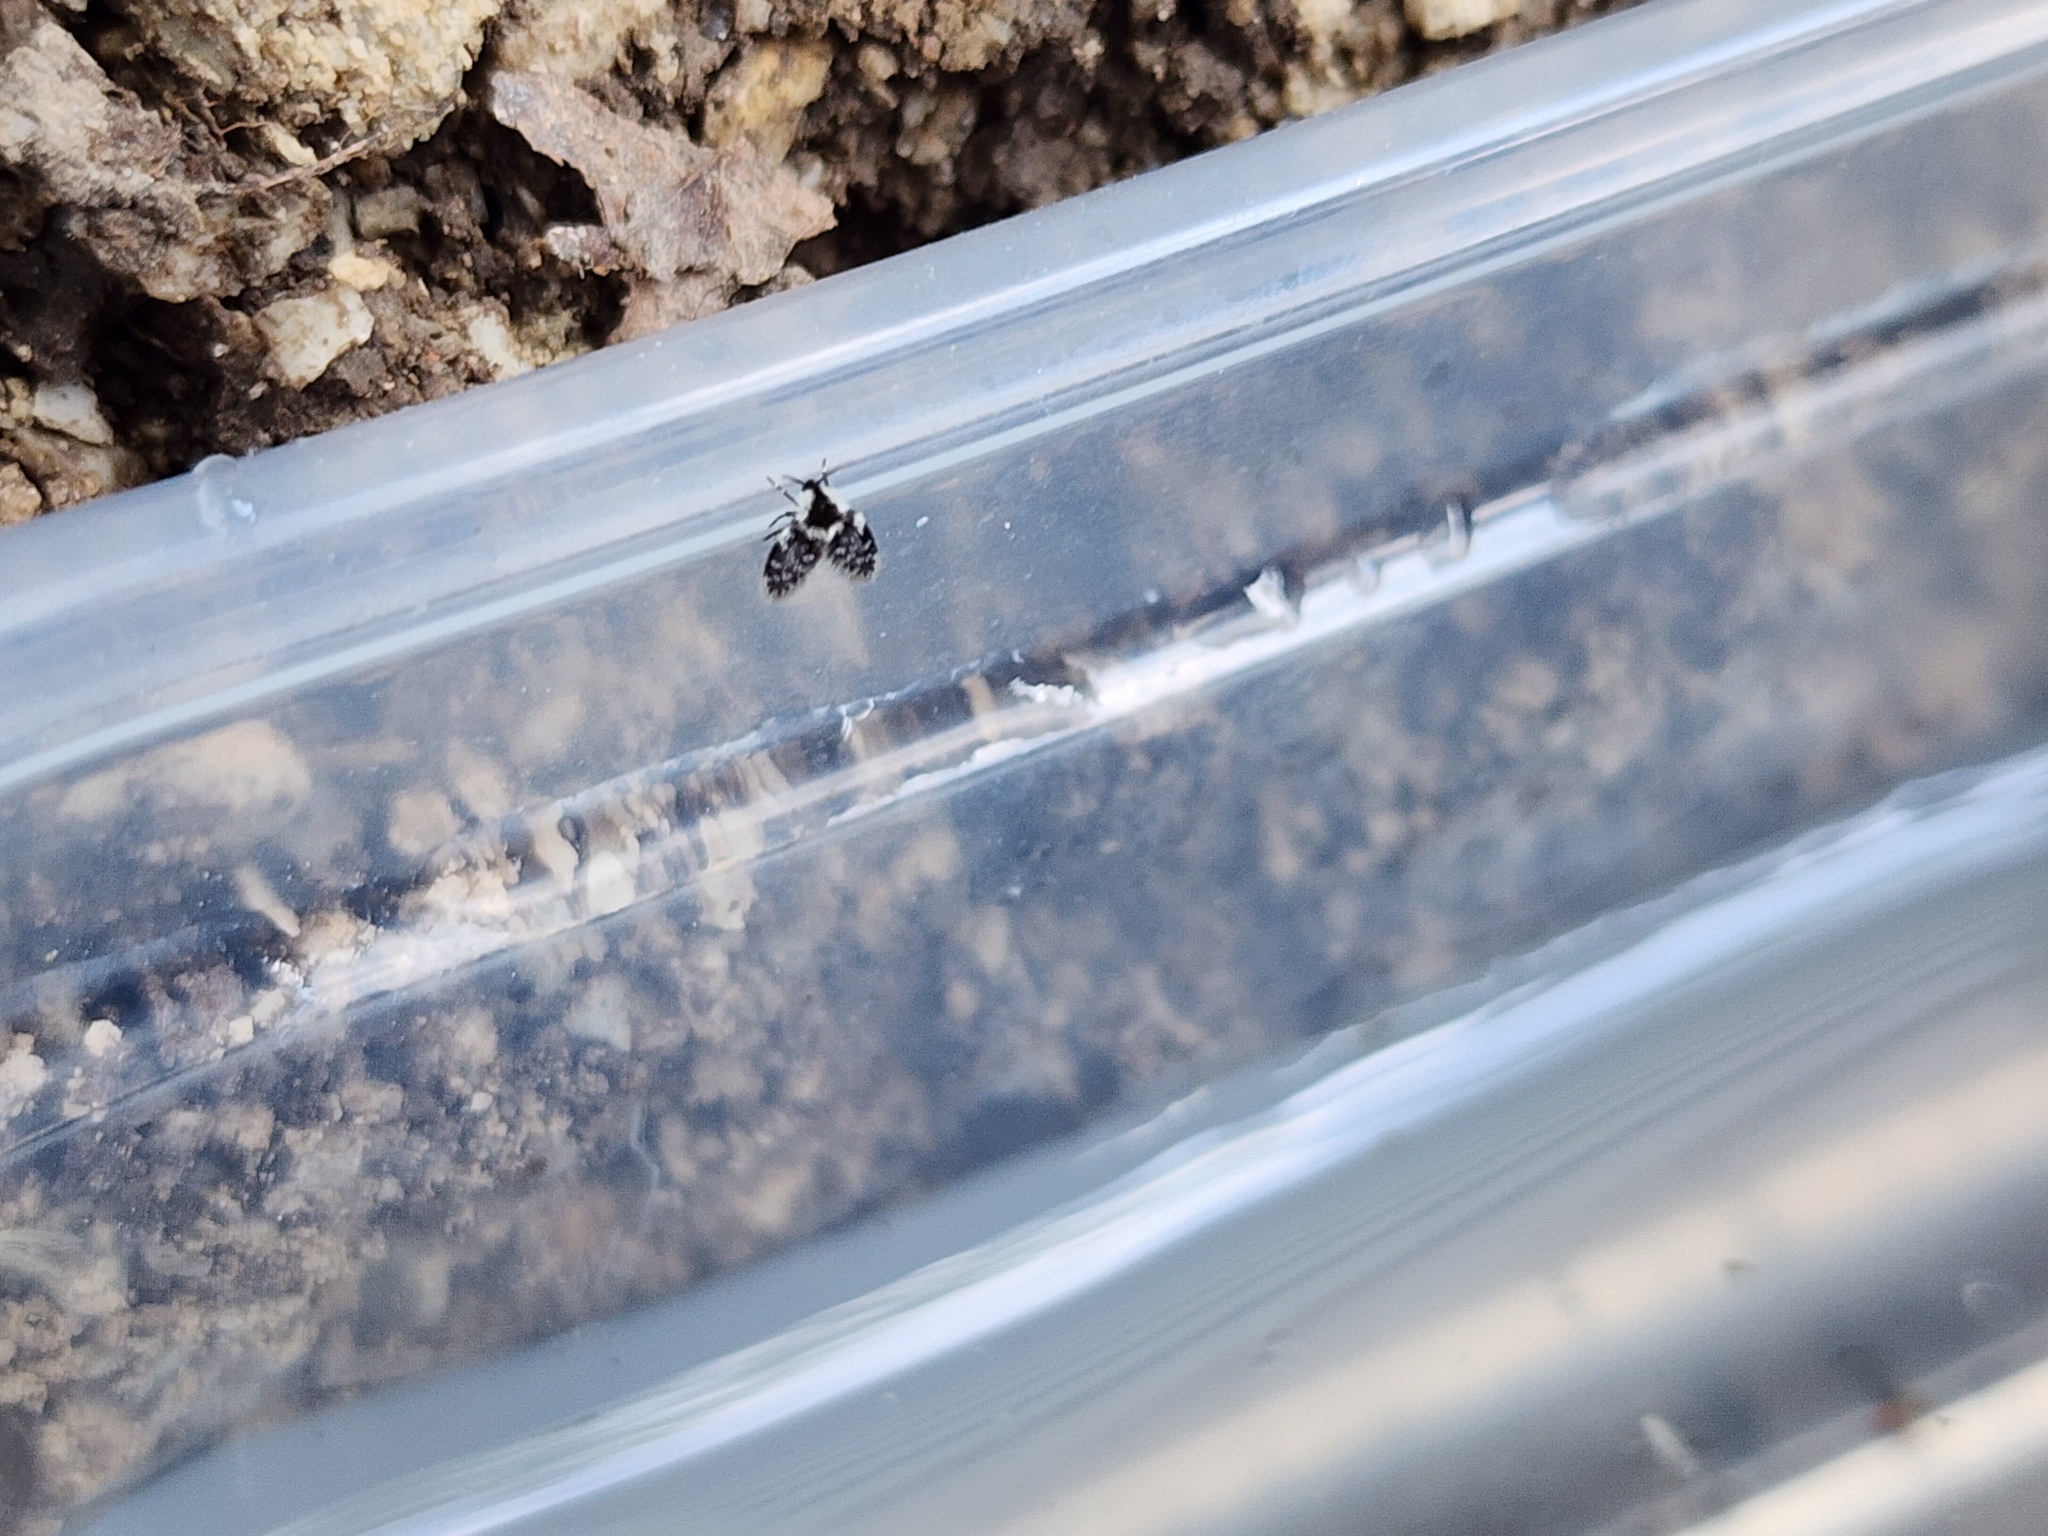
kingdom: Animalia
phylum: Arthropoda
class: Insecta
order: Diptera
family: Psychodidae
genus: Lepiseodina
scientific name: Lepiseodina
